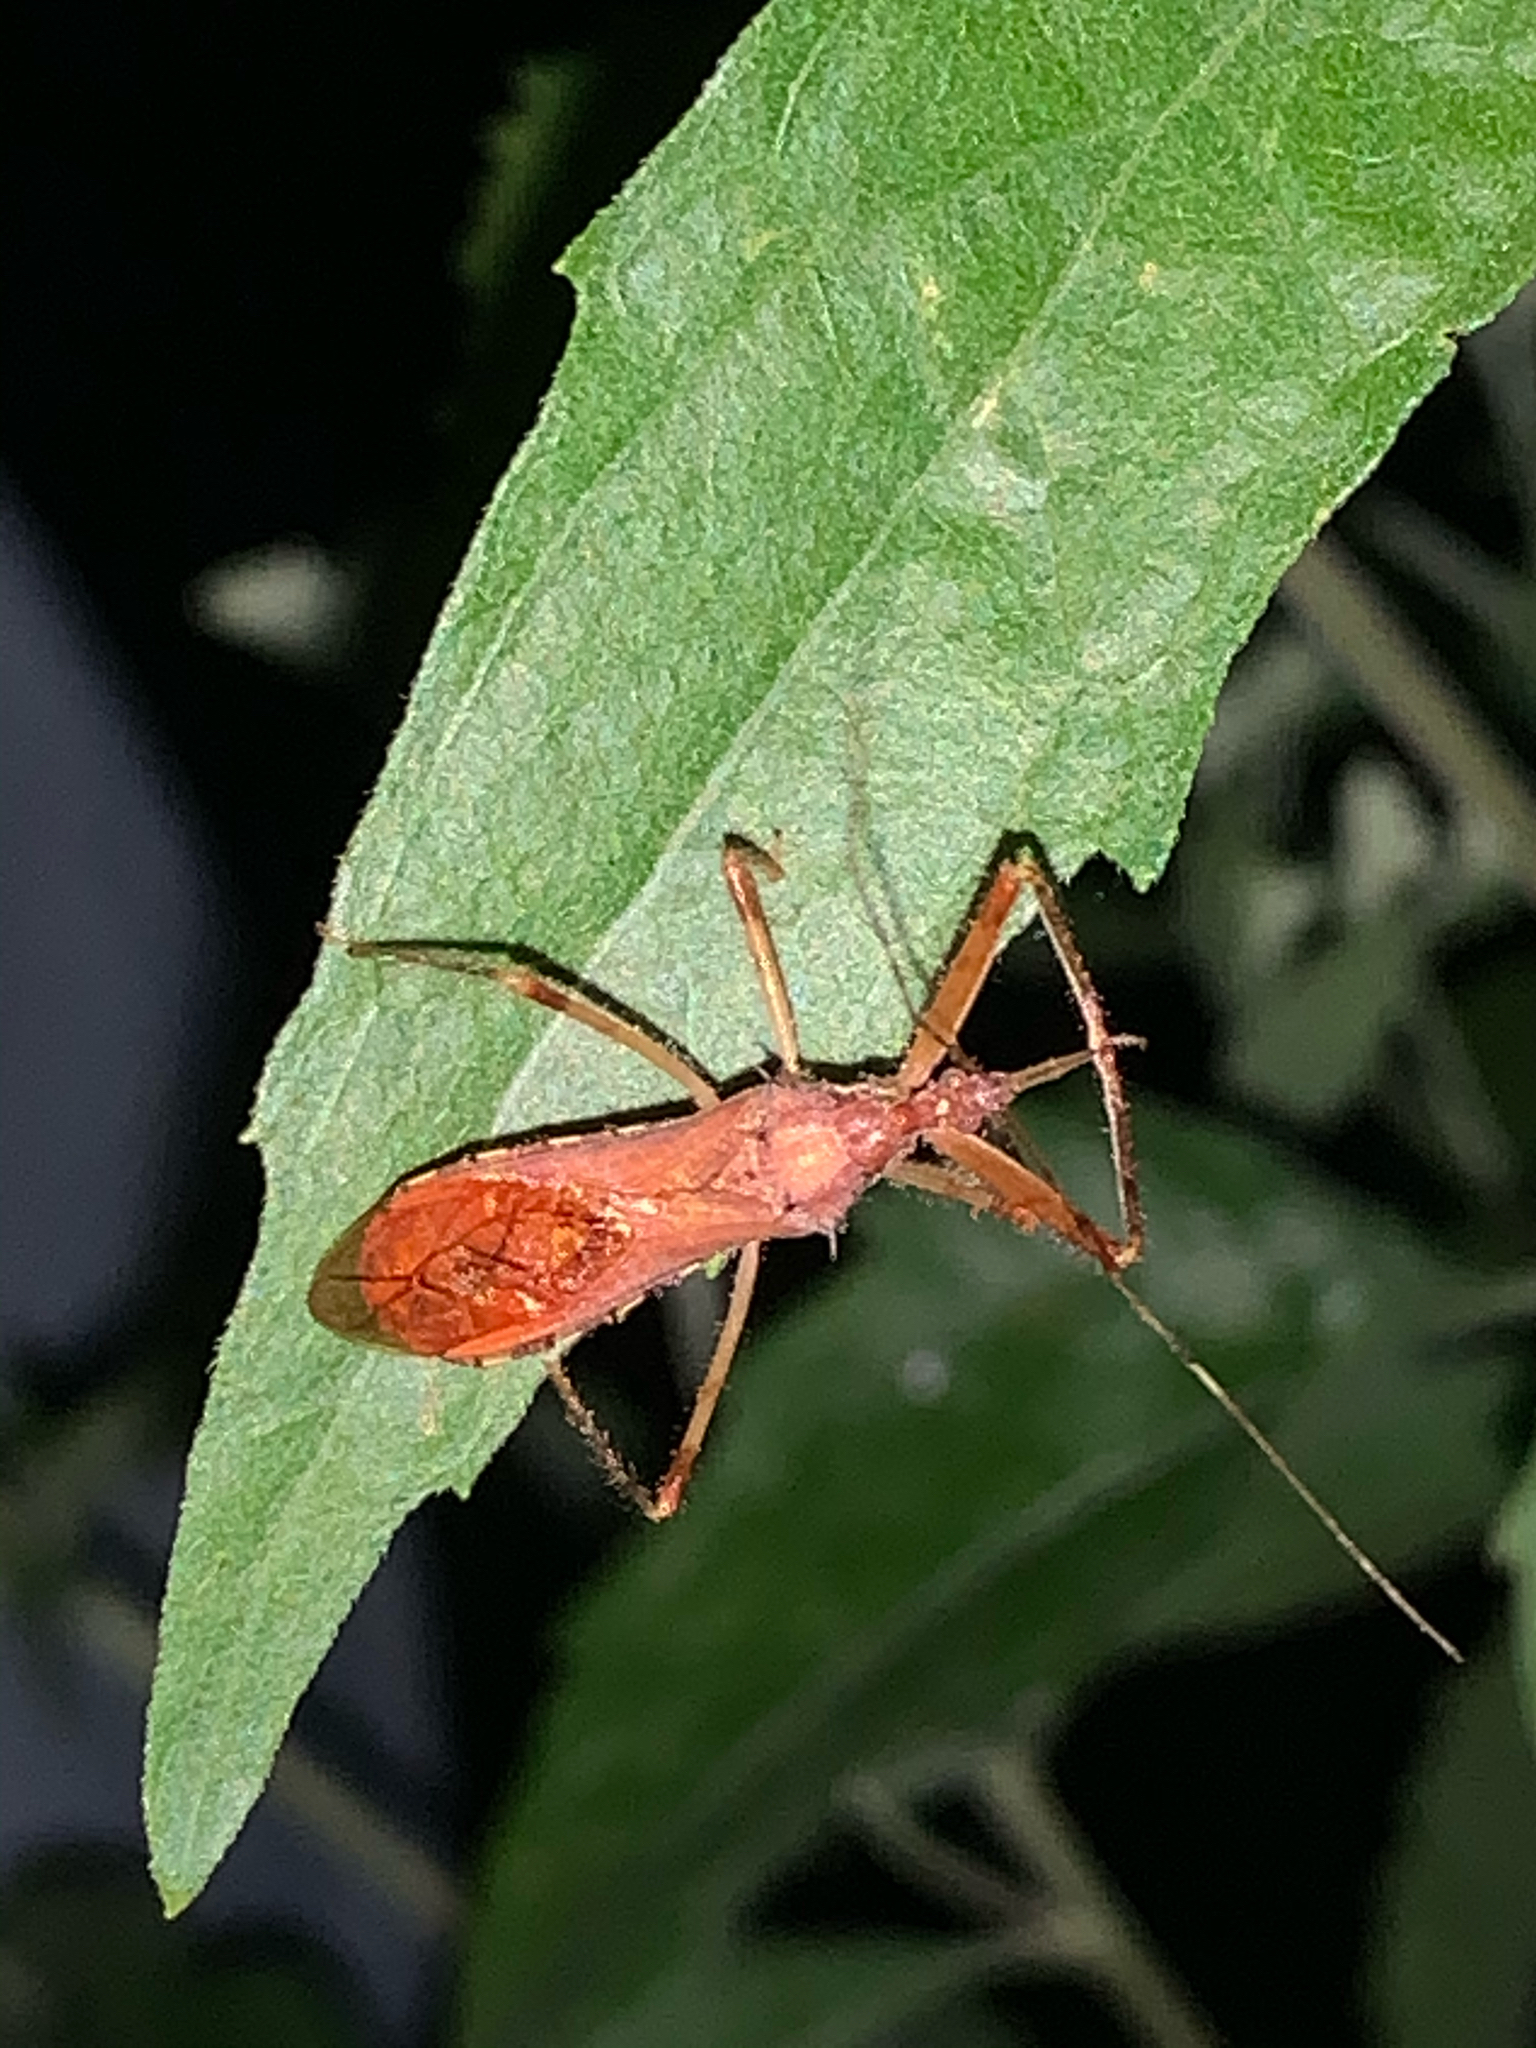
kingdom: Animalia
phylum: Arthropoda
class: Insecta
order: Hemiptera
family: Reduviidae
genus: Rocconota
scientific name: Rocconota annulicornis
